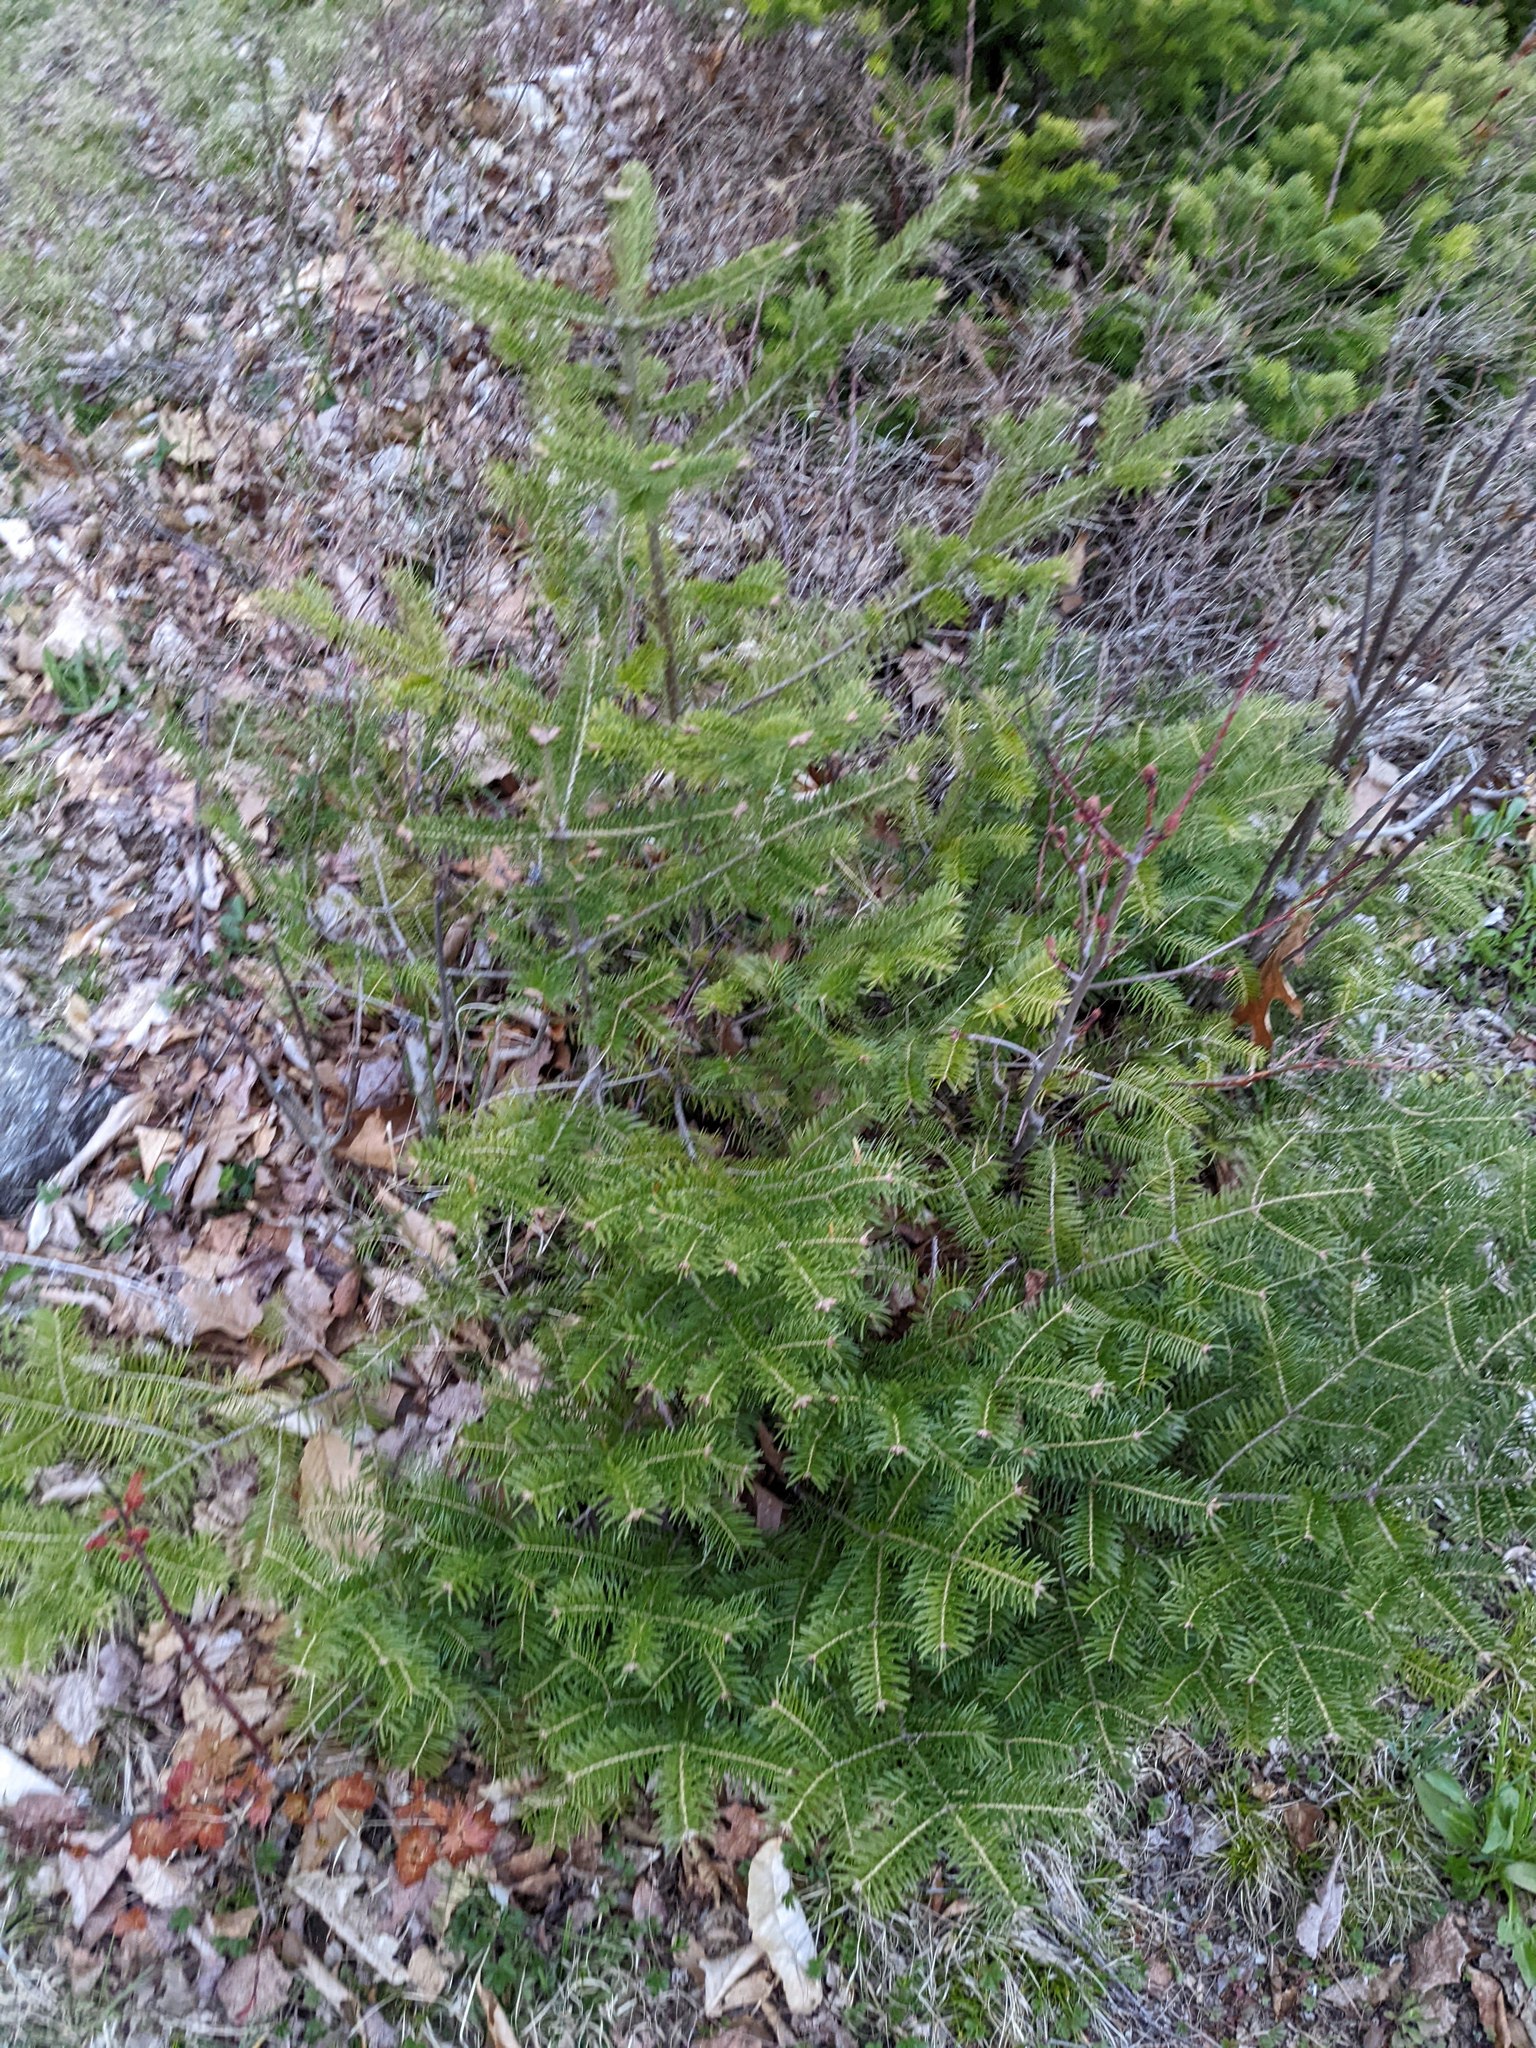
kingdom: Plantae
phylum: Tracheophyta
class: Pinopsida
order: Pinales
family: Pinaceae
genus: Abies
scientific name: Abies balsamea
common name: Balsam fir
